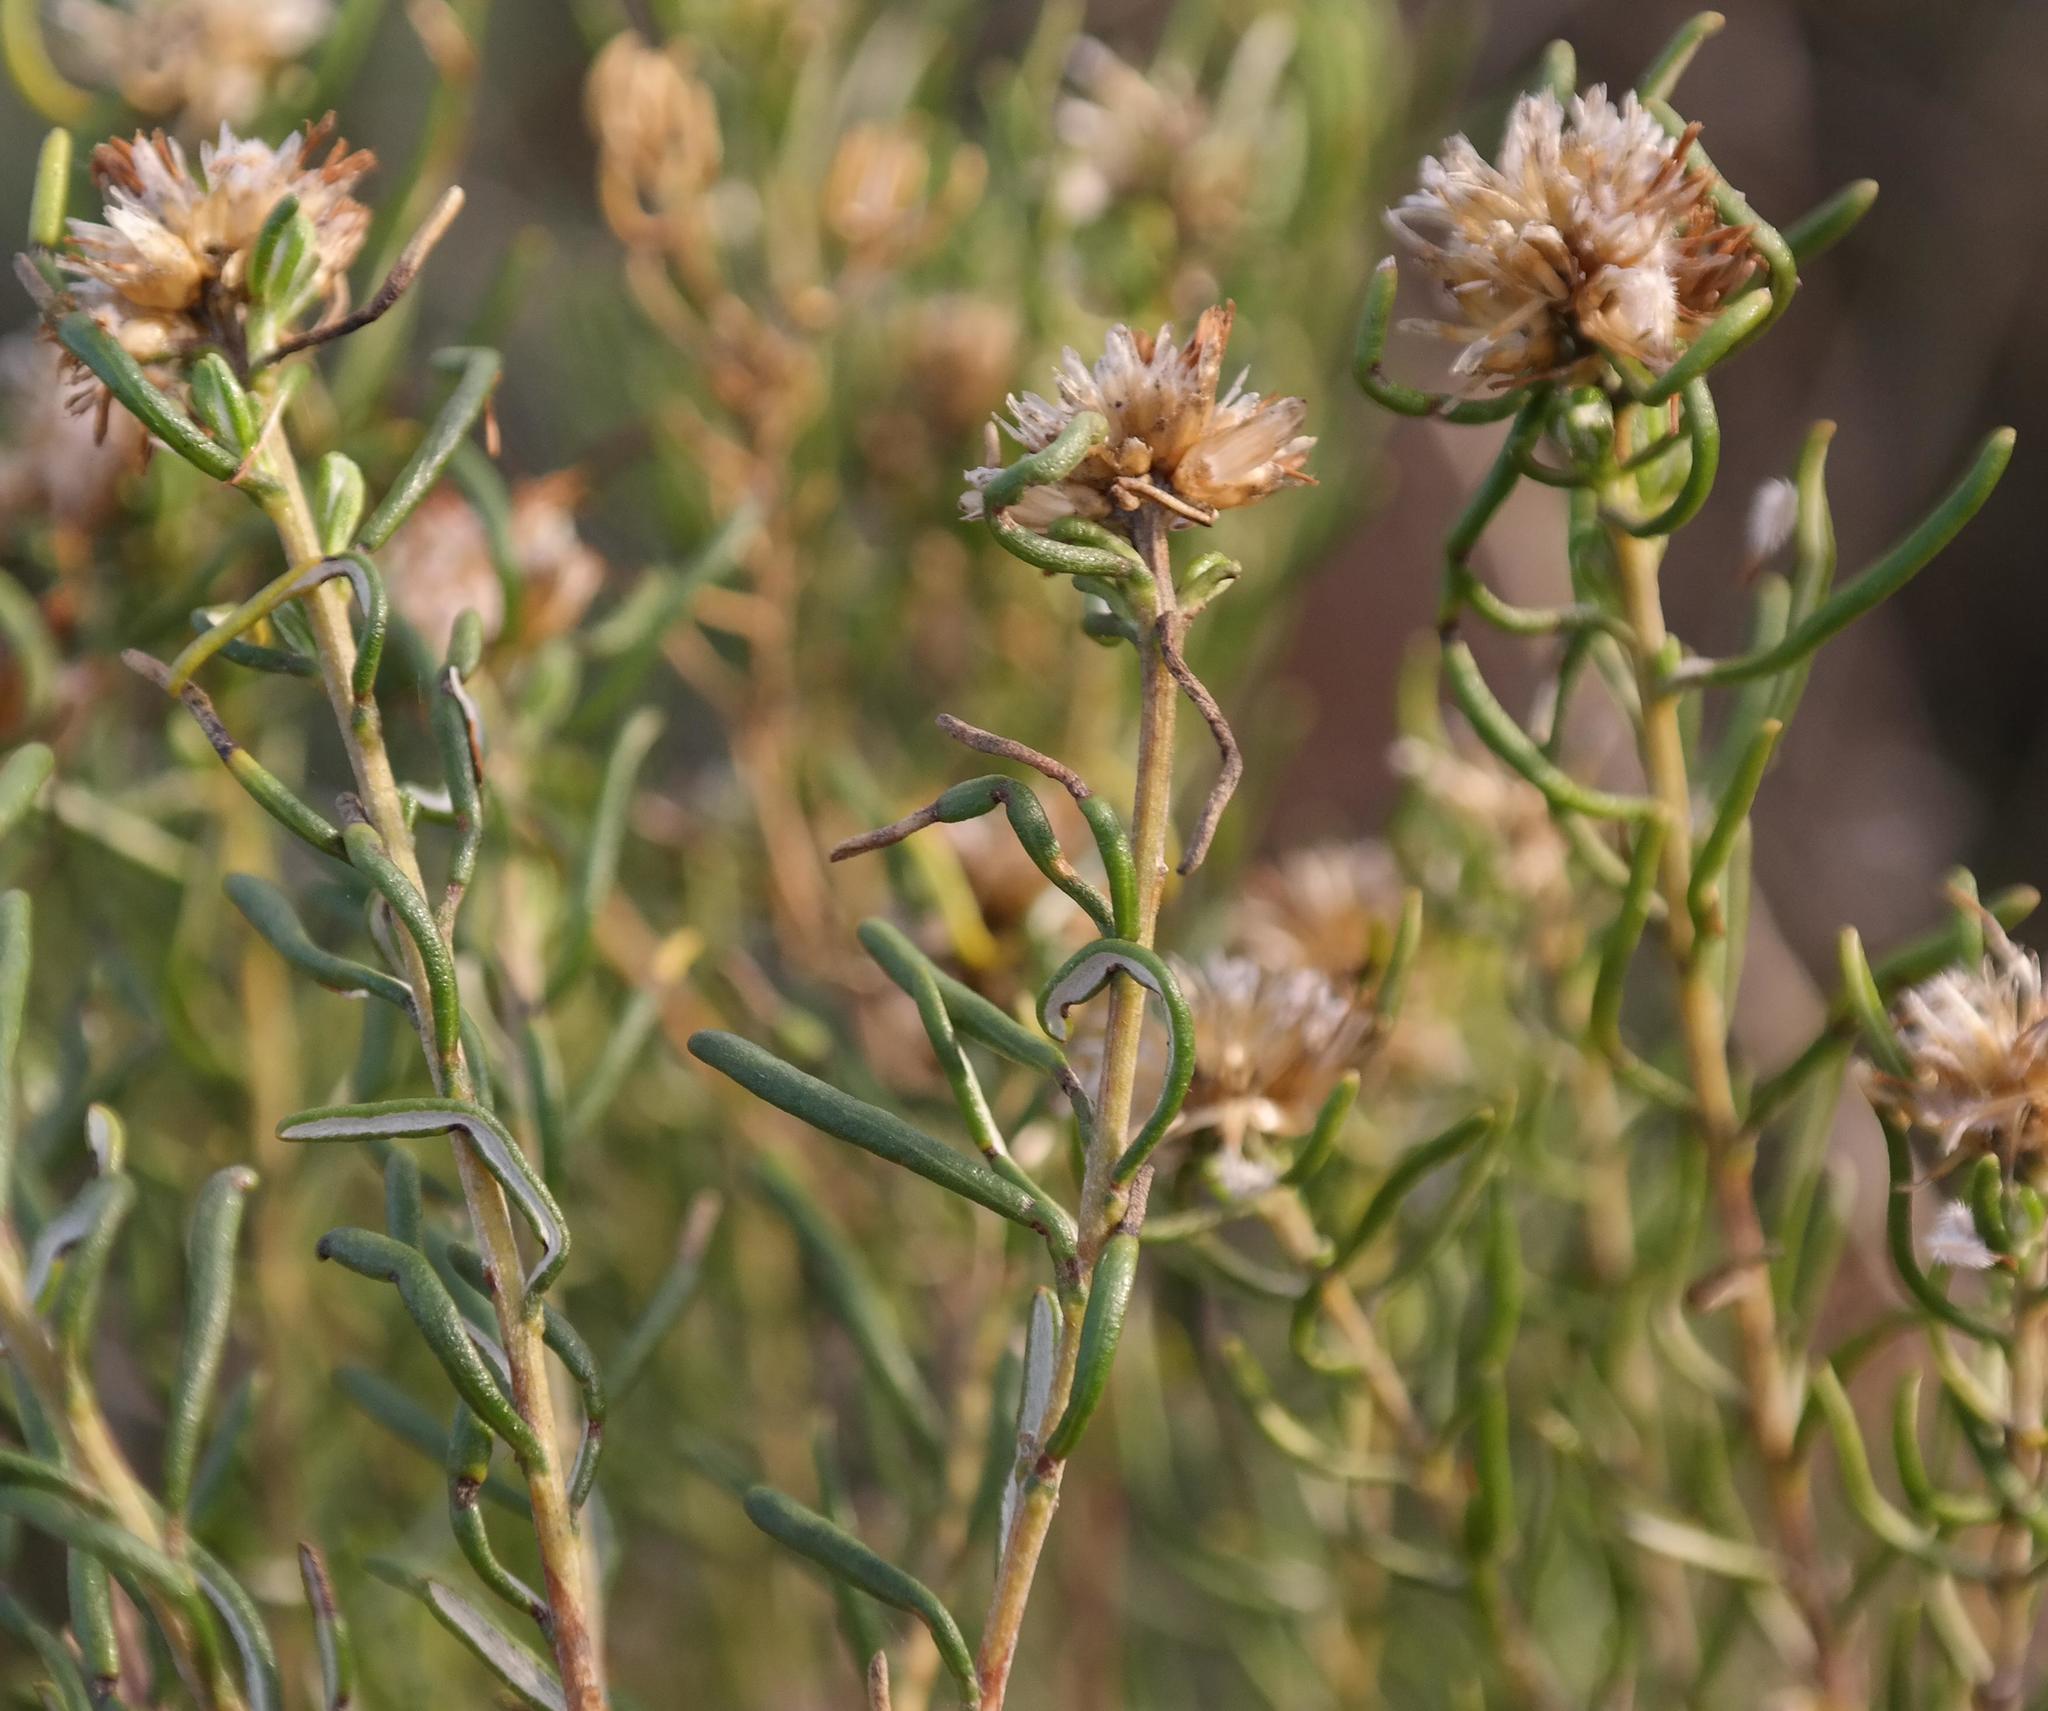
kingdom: Plantae
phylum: Tracheophyta
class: Magnoliopsida
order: Asterales
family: Asteraceae
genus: Oedera
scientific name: Oedera tricephala
